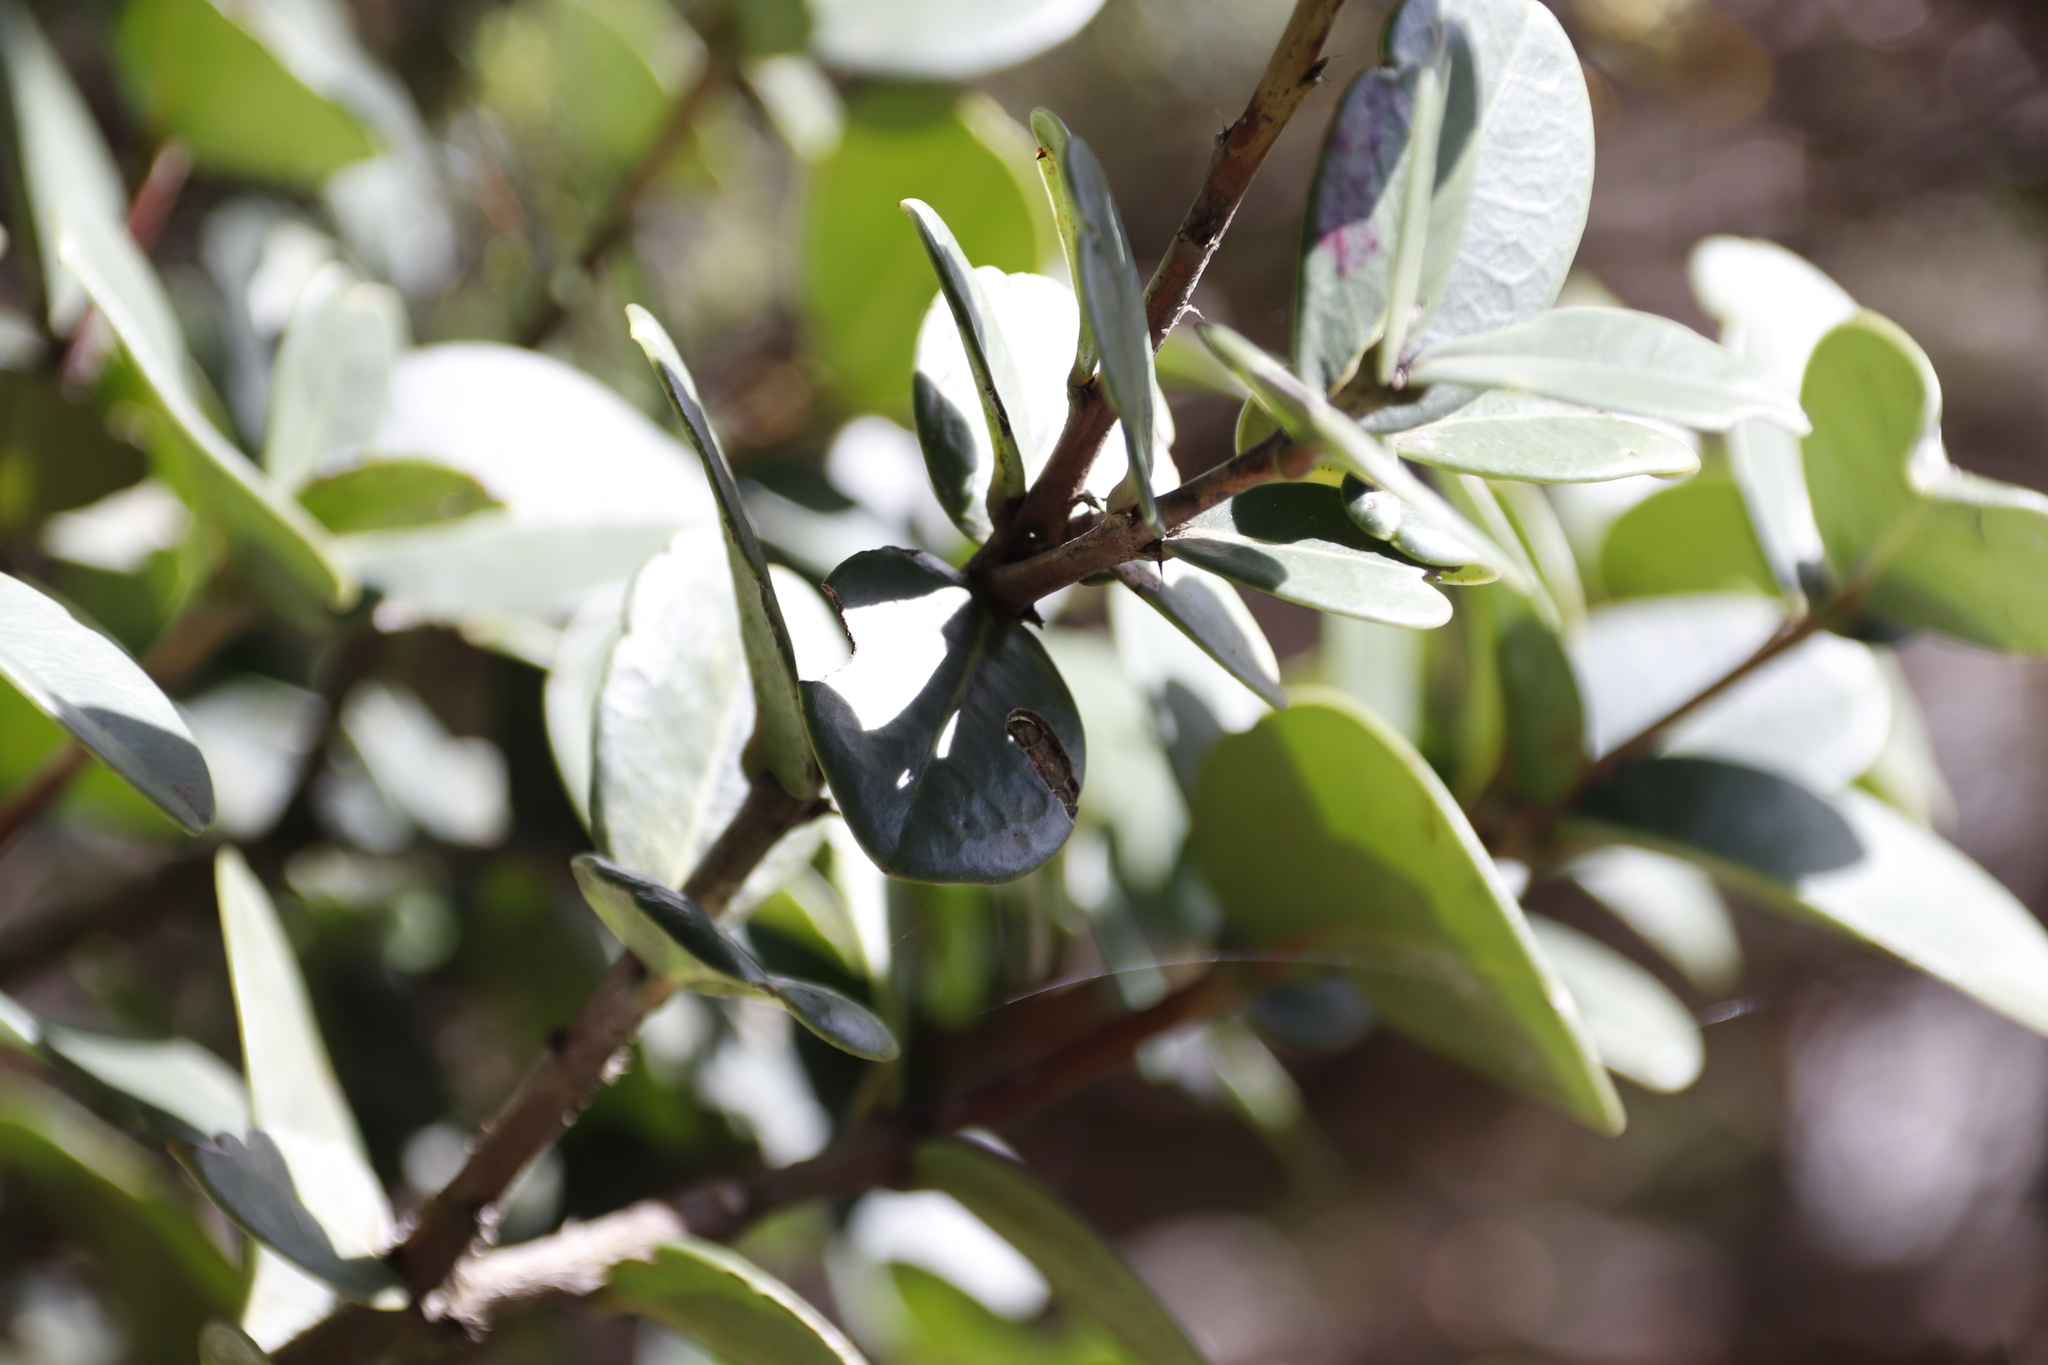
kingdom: Plantae
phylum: Tracheophyta
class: Magnoliopsida
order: Celastrales
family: Celastraceae
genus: Maurocenia
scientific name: Maurocenia frangula
